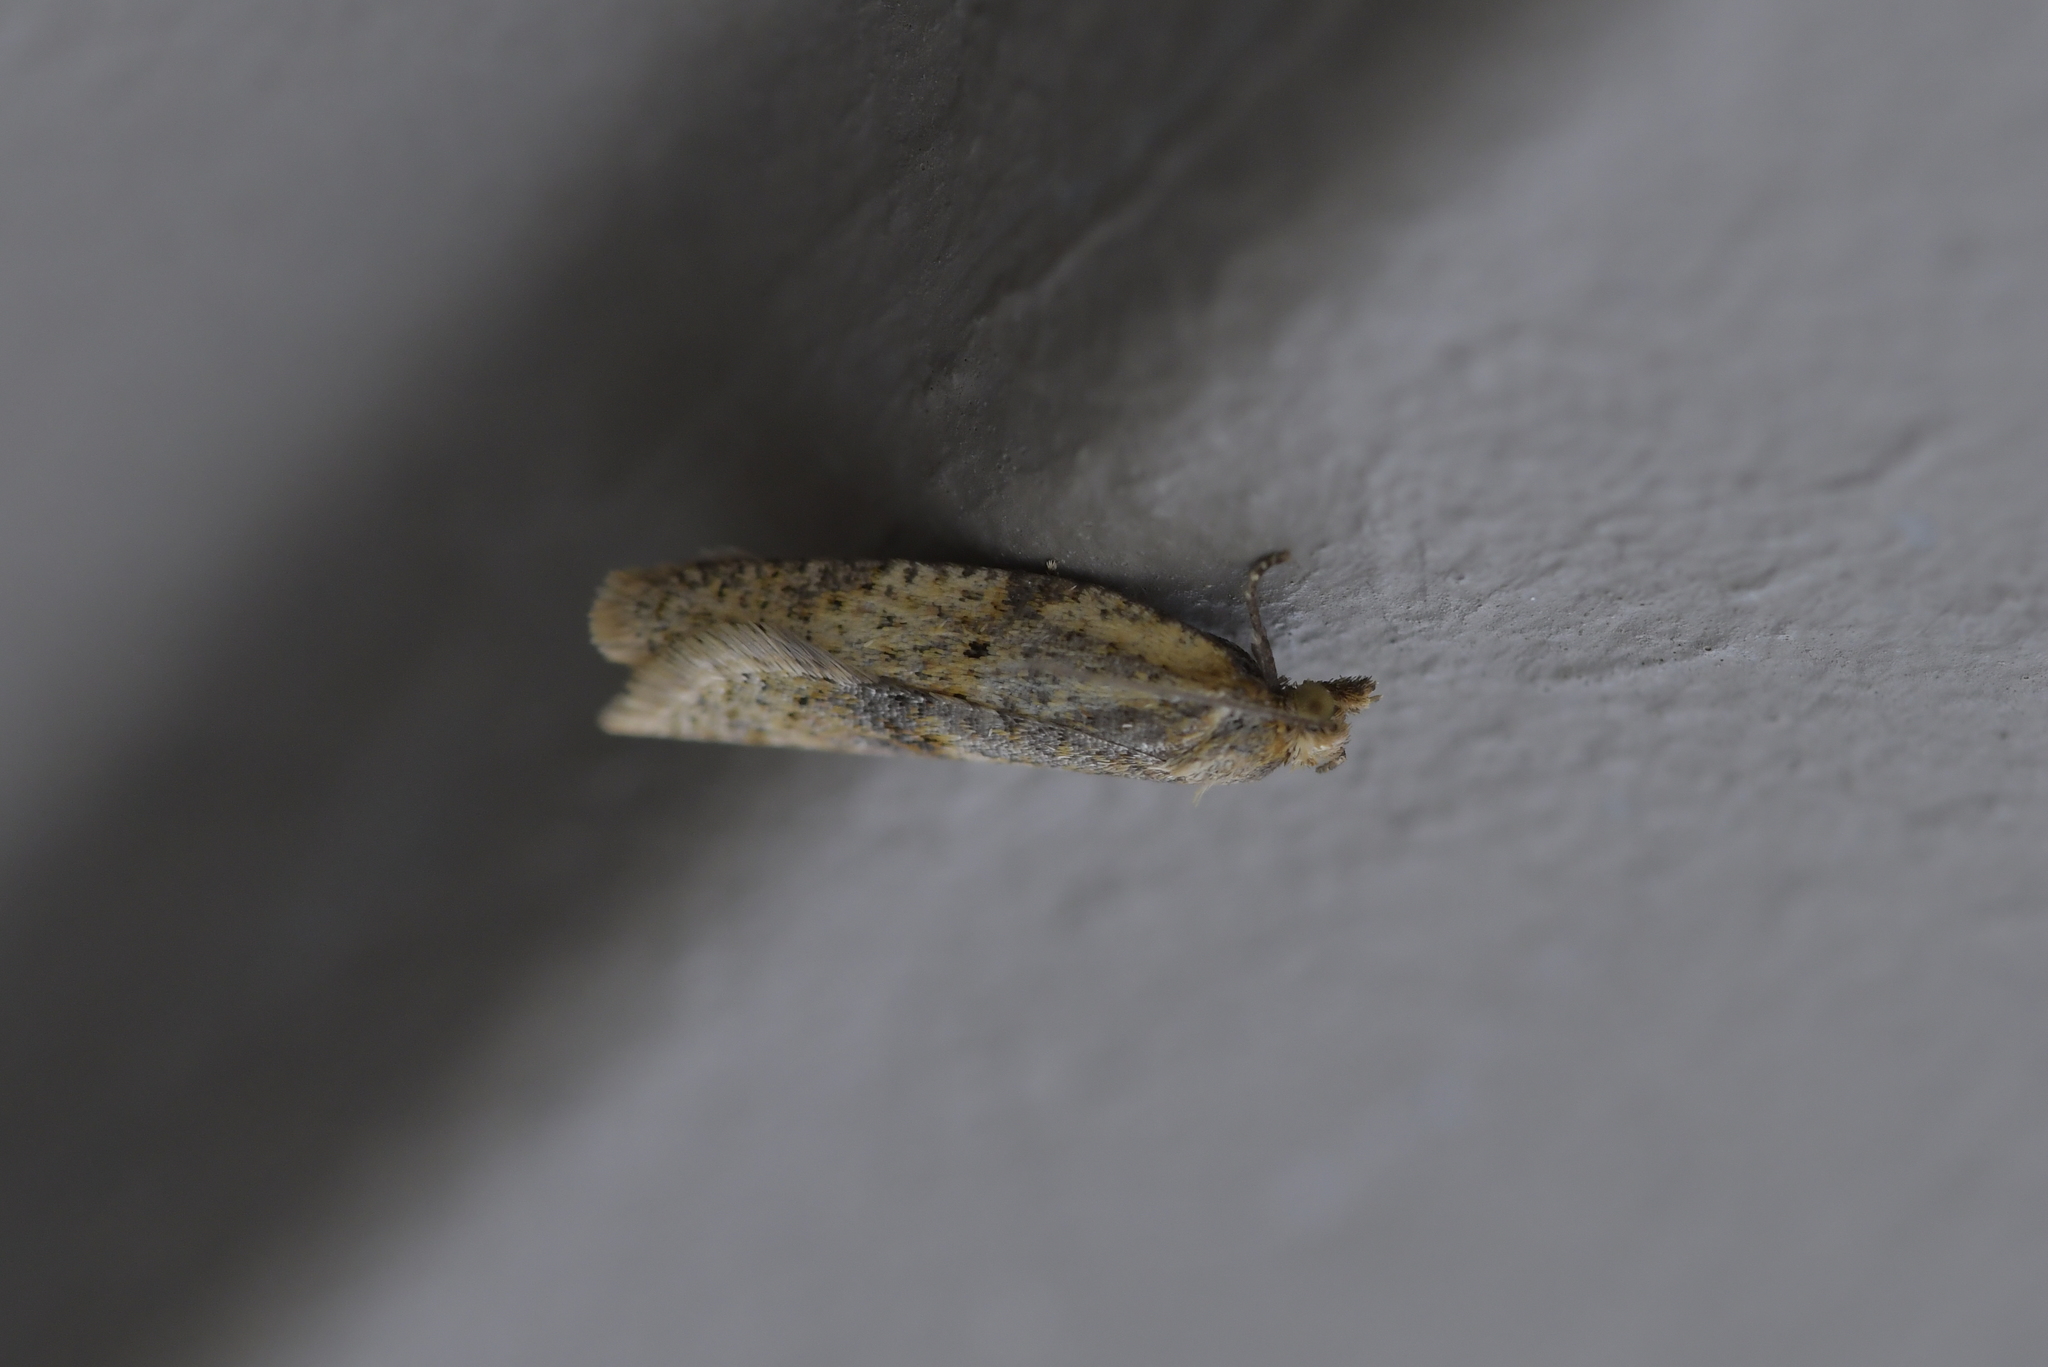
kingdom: Animalia
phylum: Arthropoda
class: Insecta
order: Lepidoptera
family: Tortricidae
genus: Clepsis
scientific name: Clepsis
